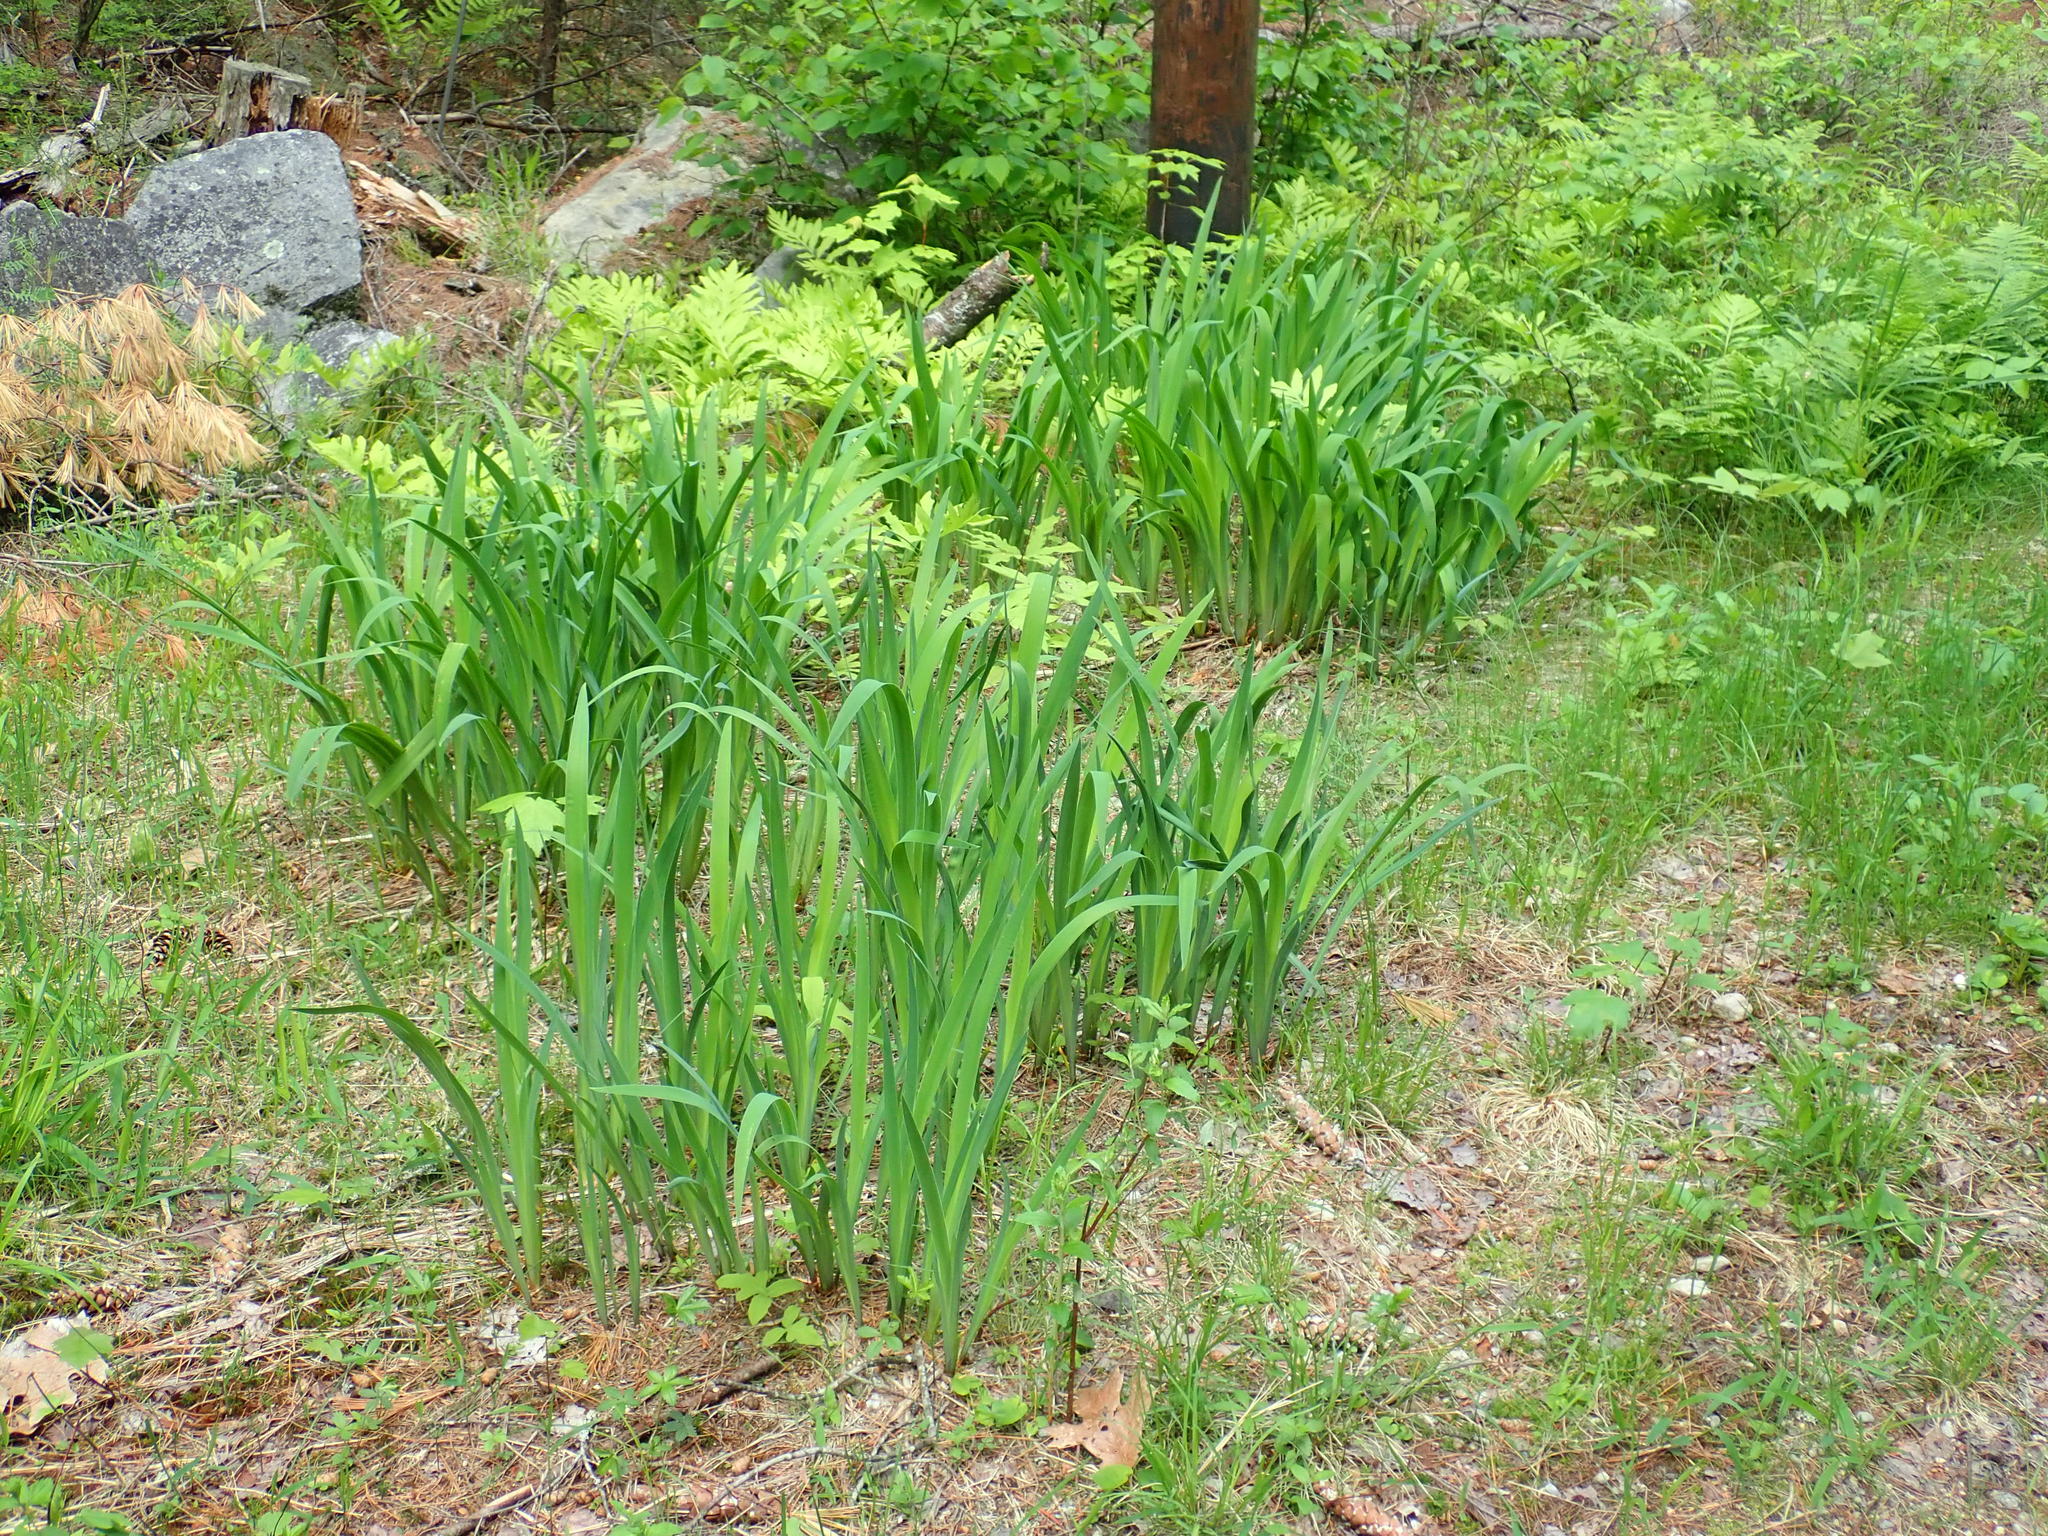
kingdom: Plantae
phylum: Tracheophyta
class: Liliopsida
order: Asparagales
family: Iridaceae
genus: Iris
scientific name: Iris
